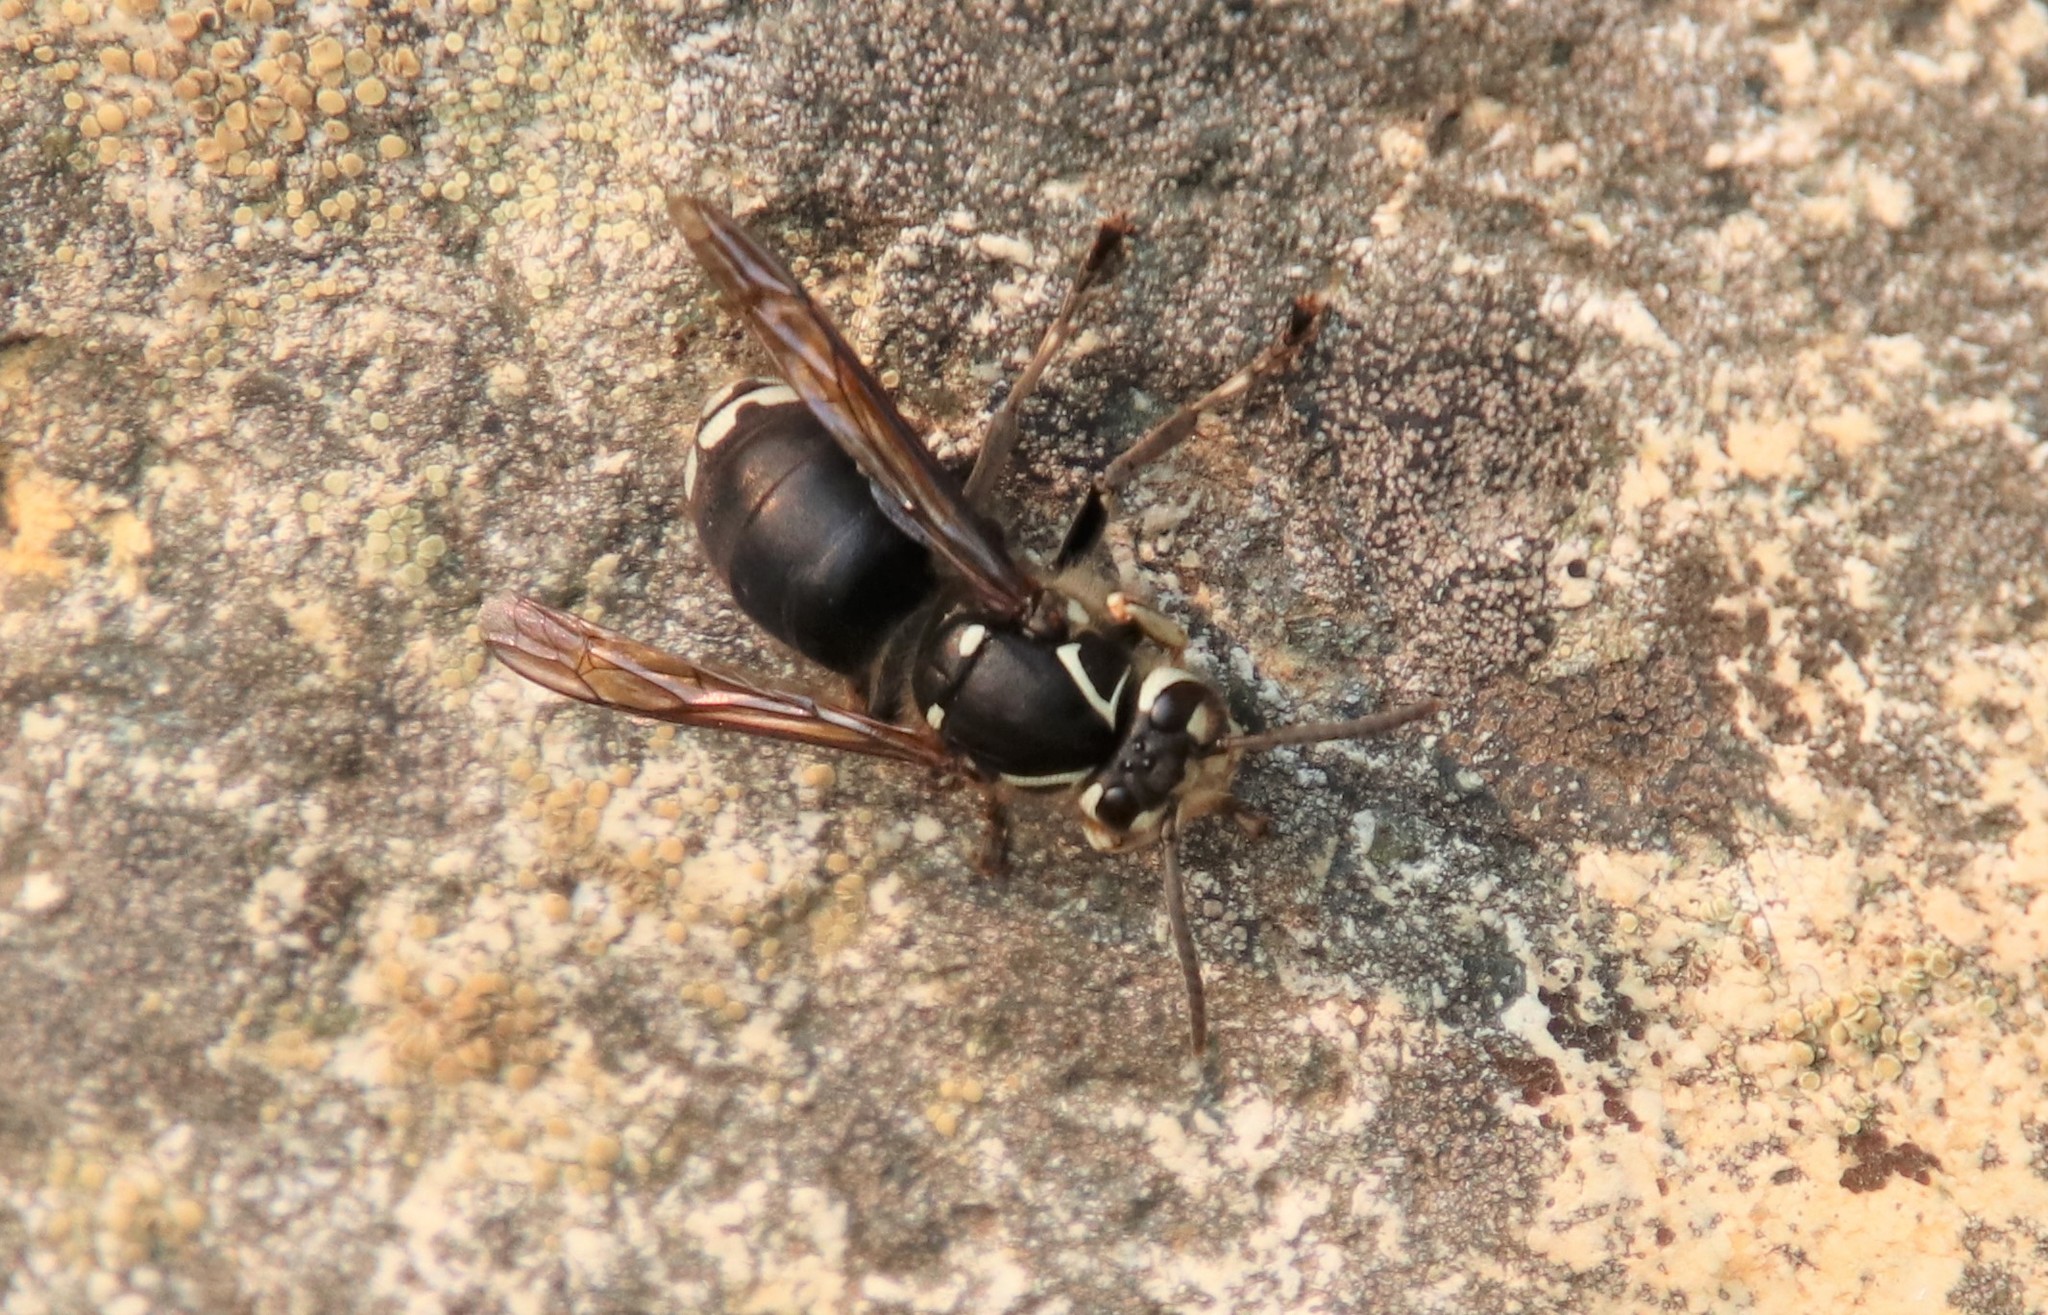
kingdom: Animalia
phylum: Arthropoda
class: Insecta
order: Hymenoptera
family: Vespidae
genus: Dolichovespula
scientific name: Dolichovespula maculata
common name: Bald-faced hornet
